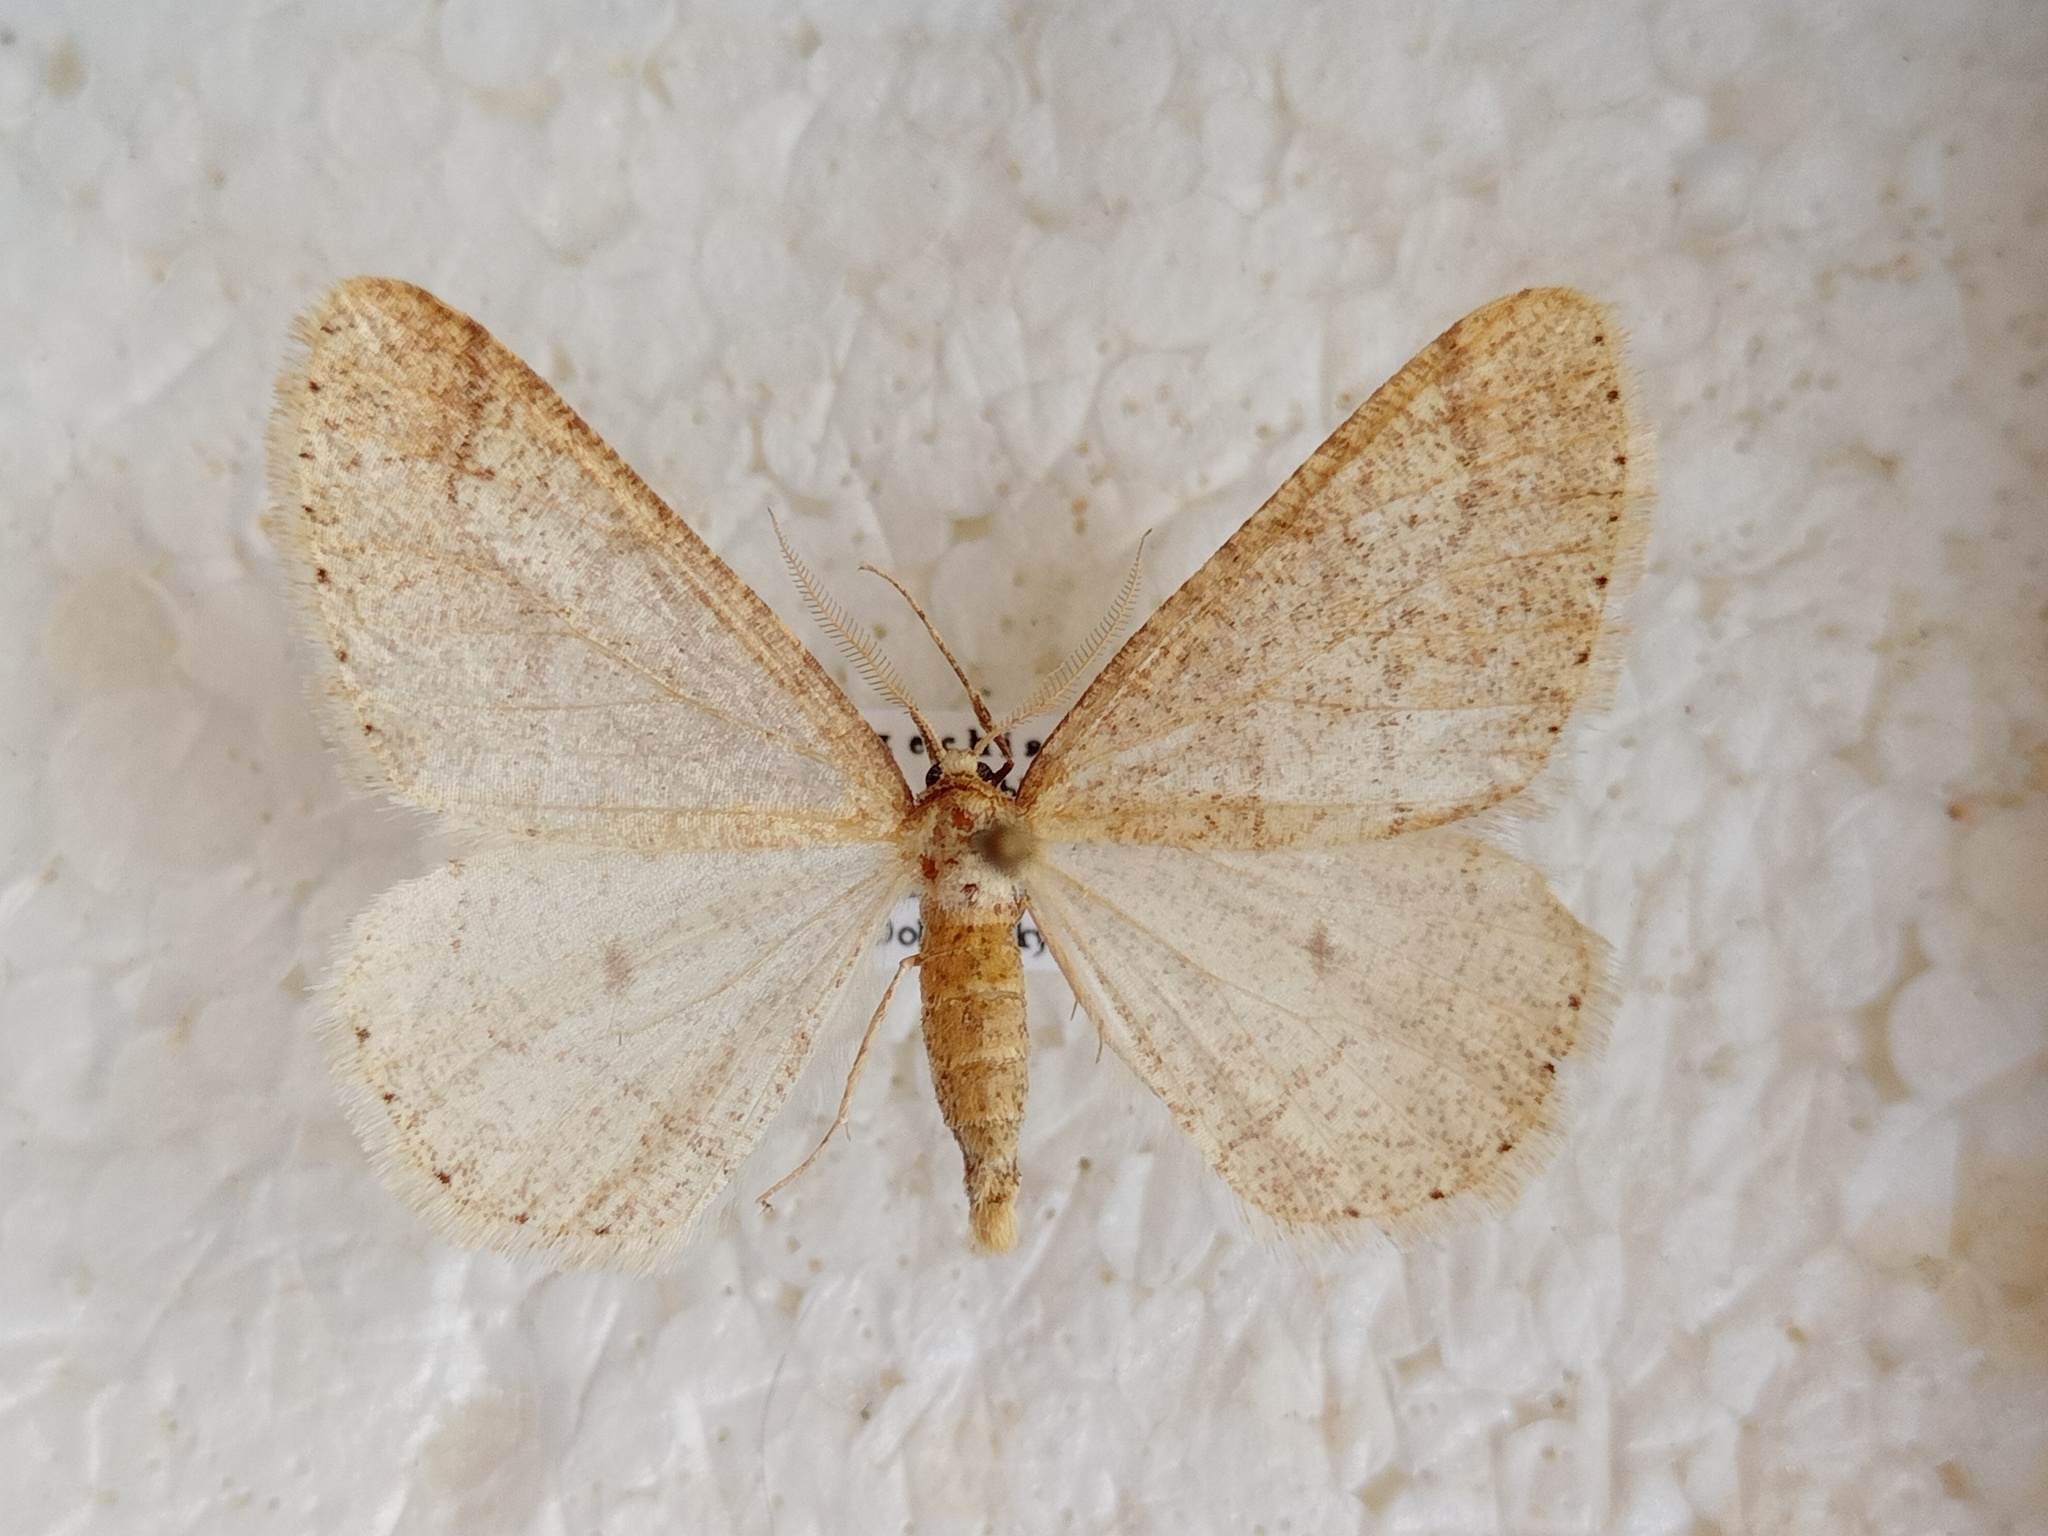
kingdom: Animalia
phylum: Arthropoda
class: Insecta
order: Lepidoptera
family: Geometridae
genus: Agriopis
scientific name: Agriopis marginaria
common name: Dotted border
